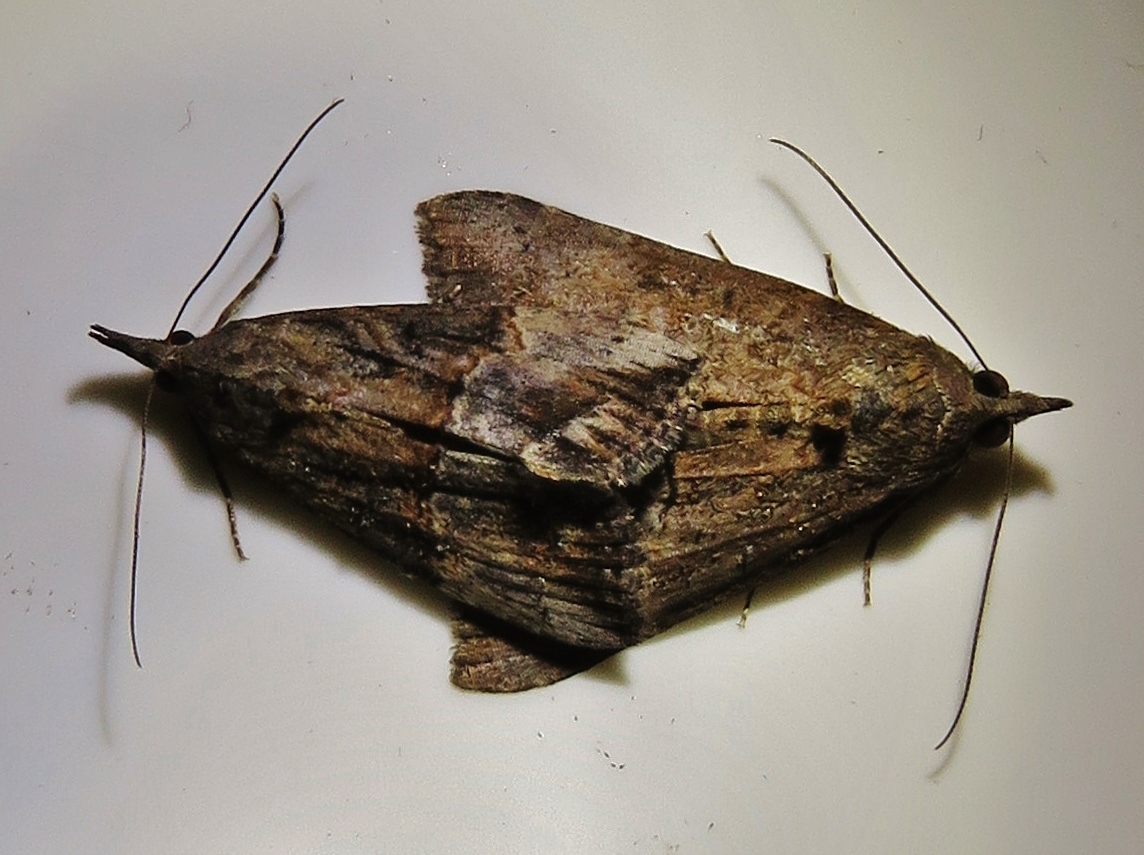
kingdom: Animalia
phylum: Arthropoda
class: Insecta
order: Lepidoptera
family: Erebidae
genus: Hypena
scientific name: Hypena scabra
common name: Green cloverworm
